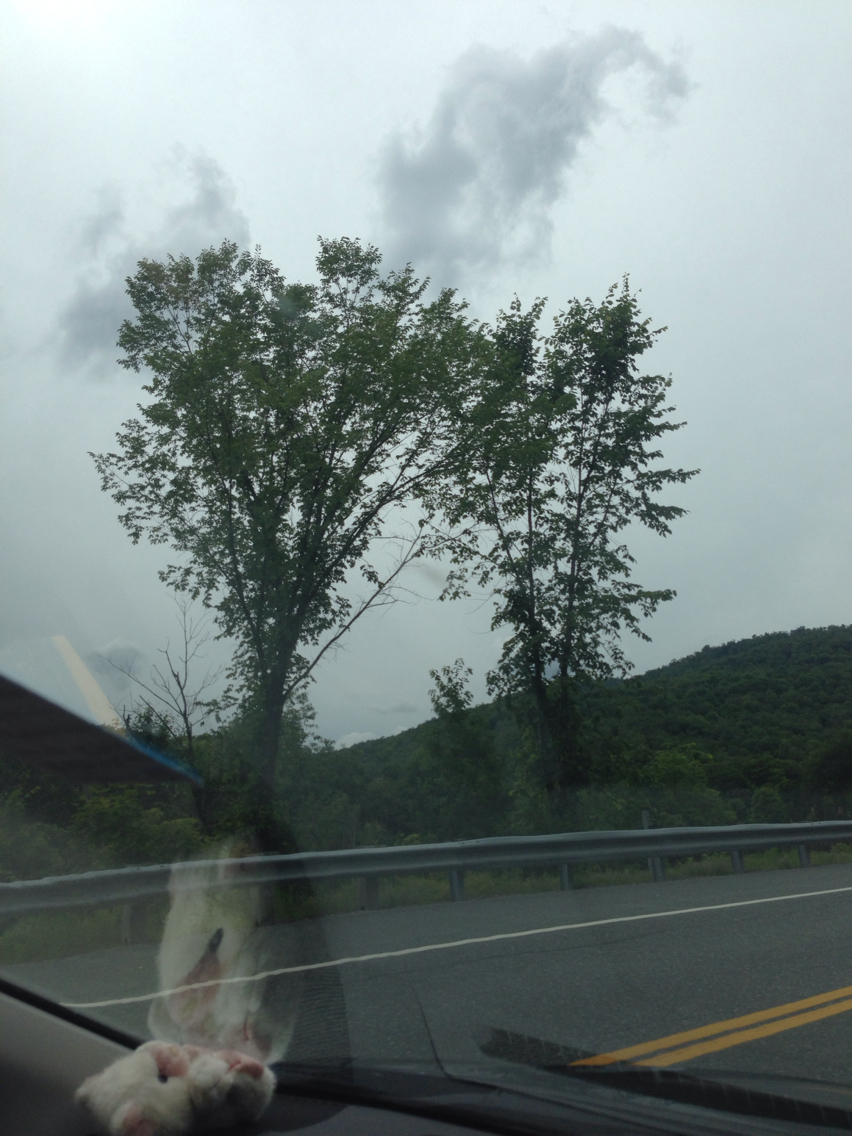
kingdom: Plantae
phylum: Tracheophyta
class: Magnoliopsida
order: Rosales
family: Ulmaceae
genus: Ulmus
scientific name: Ulmus americana
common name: American elm
